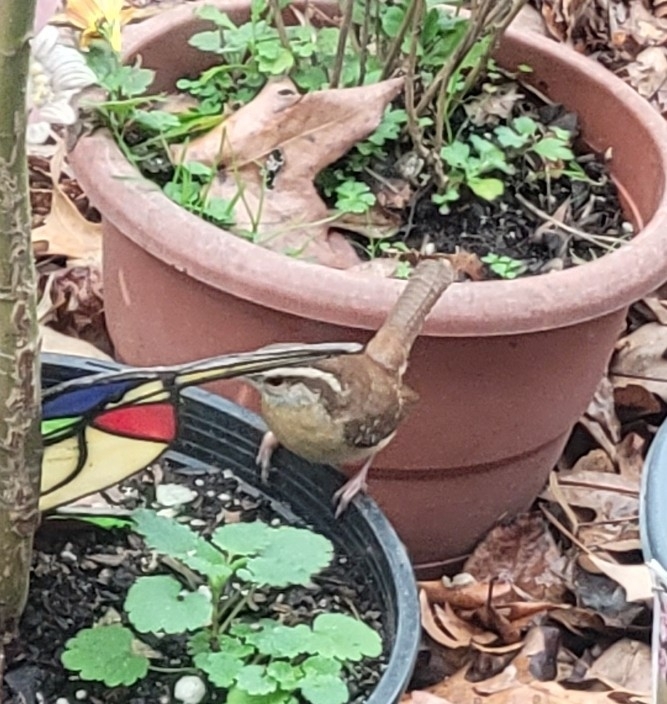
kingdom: Animalia
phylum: Chordata
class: Aves
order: Passeriformes
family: Troglodytidae
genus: Thryothorus
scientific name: Thryothorus ludovicianus
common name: Carolina wren
